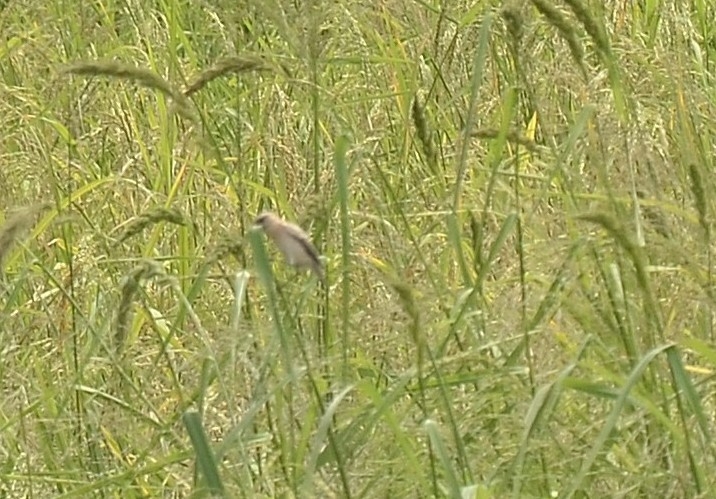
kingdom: Animalia
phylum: Chordata
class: Aves
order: Passeriformes
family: Muscicapidae
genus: Saxicola
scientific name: Saxicola maurus
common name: Siberian stonechat
